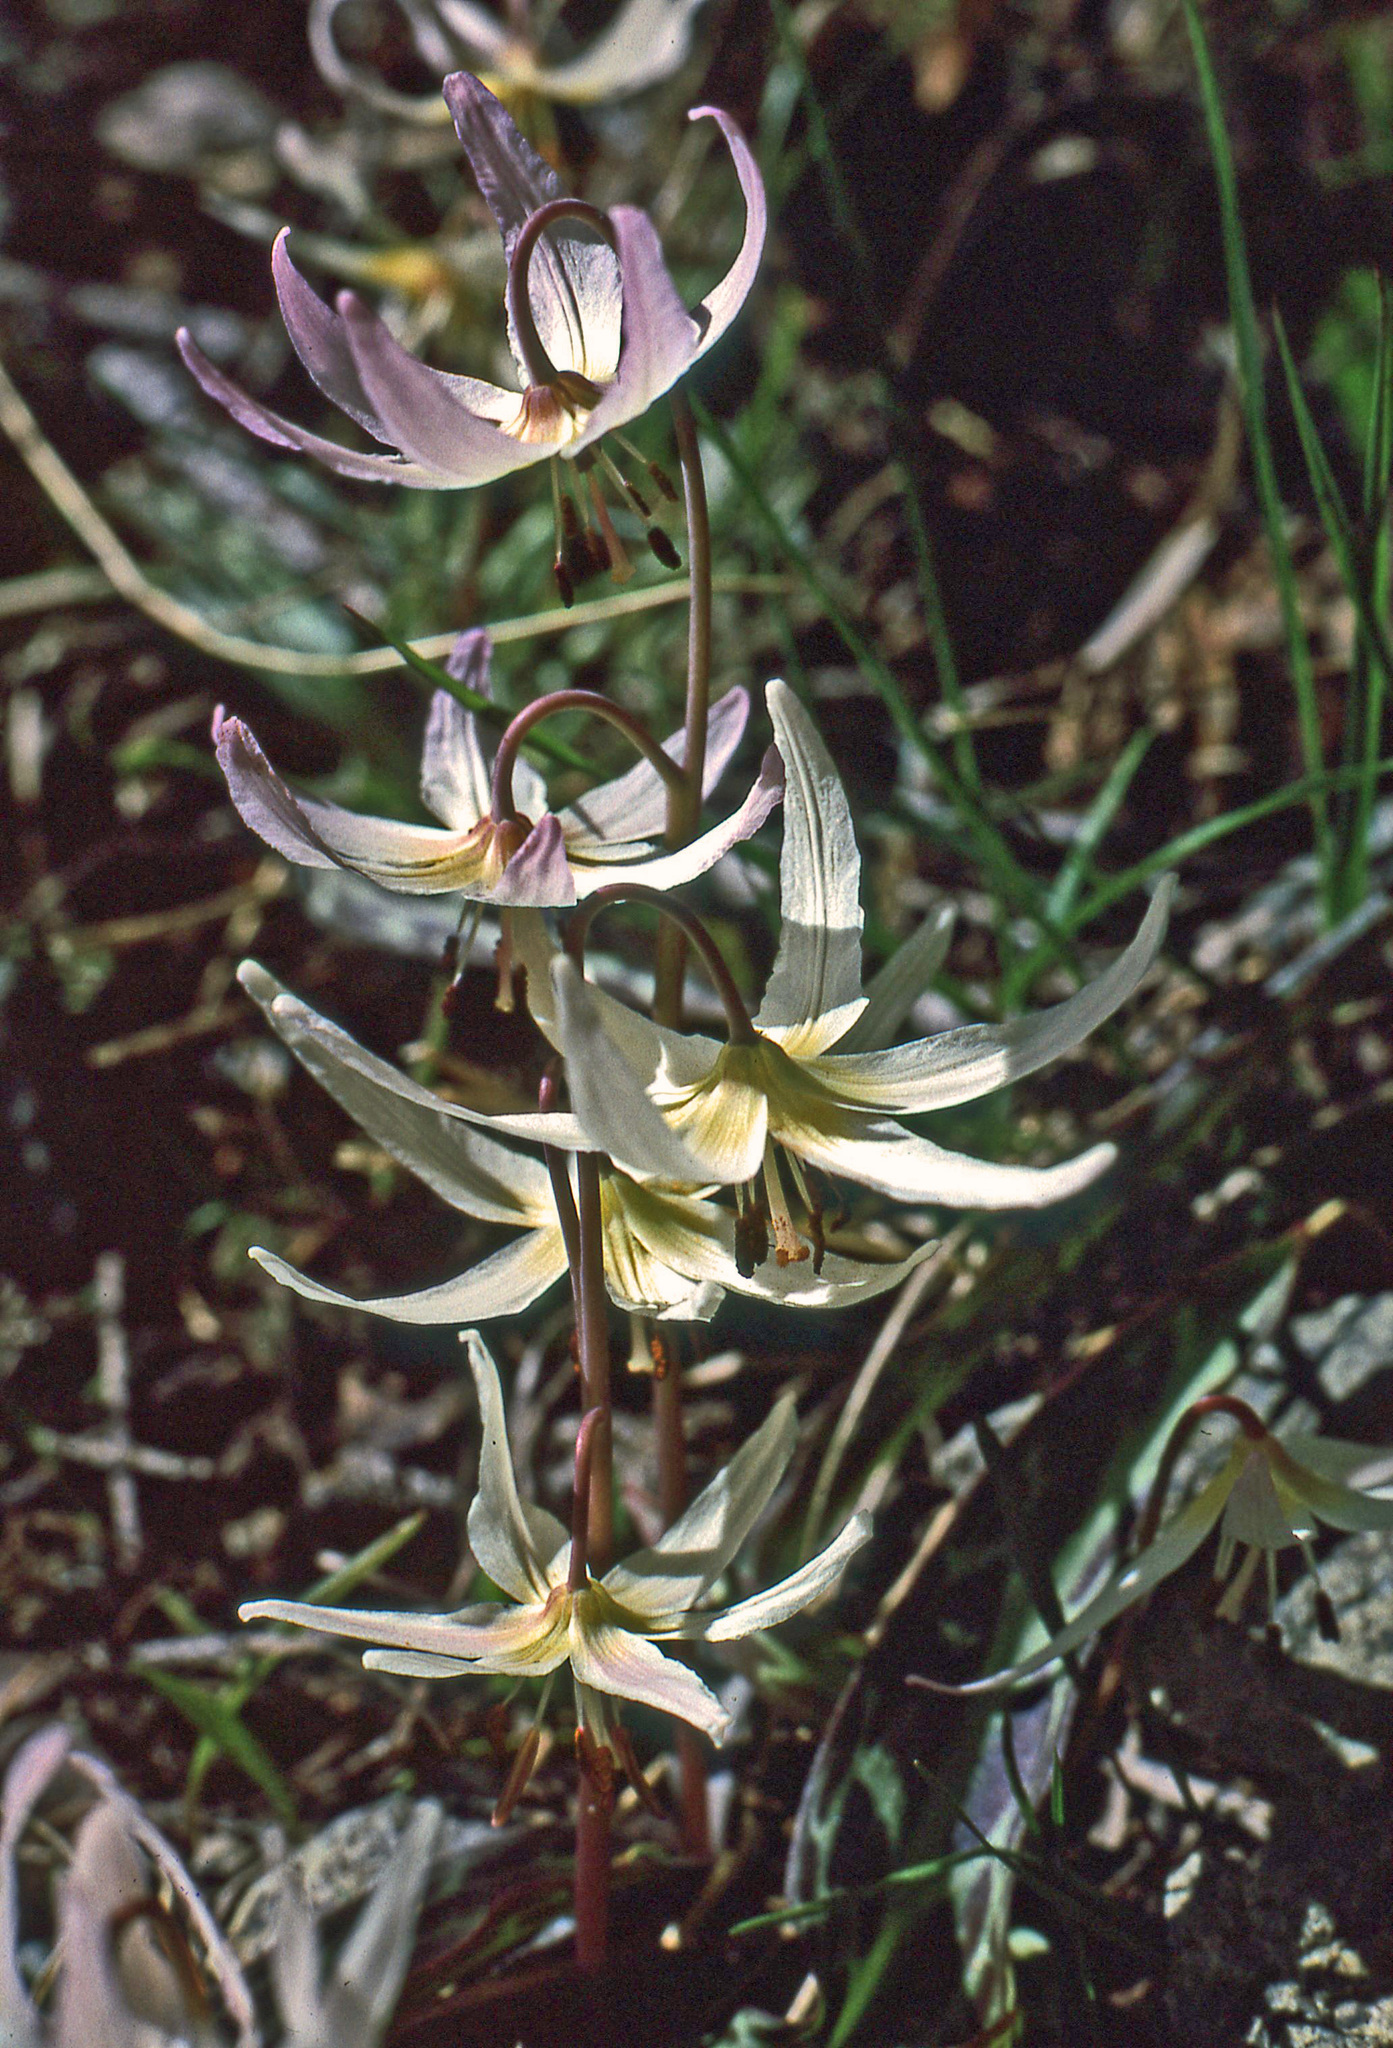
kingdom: Plantae
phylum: Tracheophyta
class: Liliopsida
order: Liliales
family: Liliaceae
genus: Erythronium
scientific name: Erythronium citrinum
